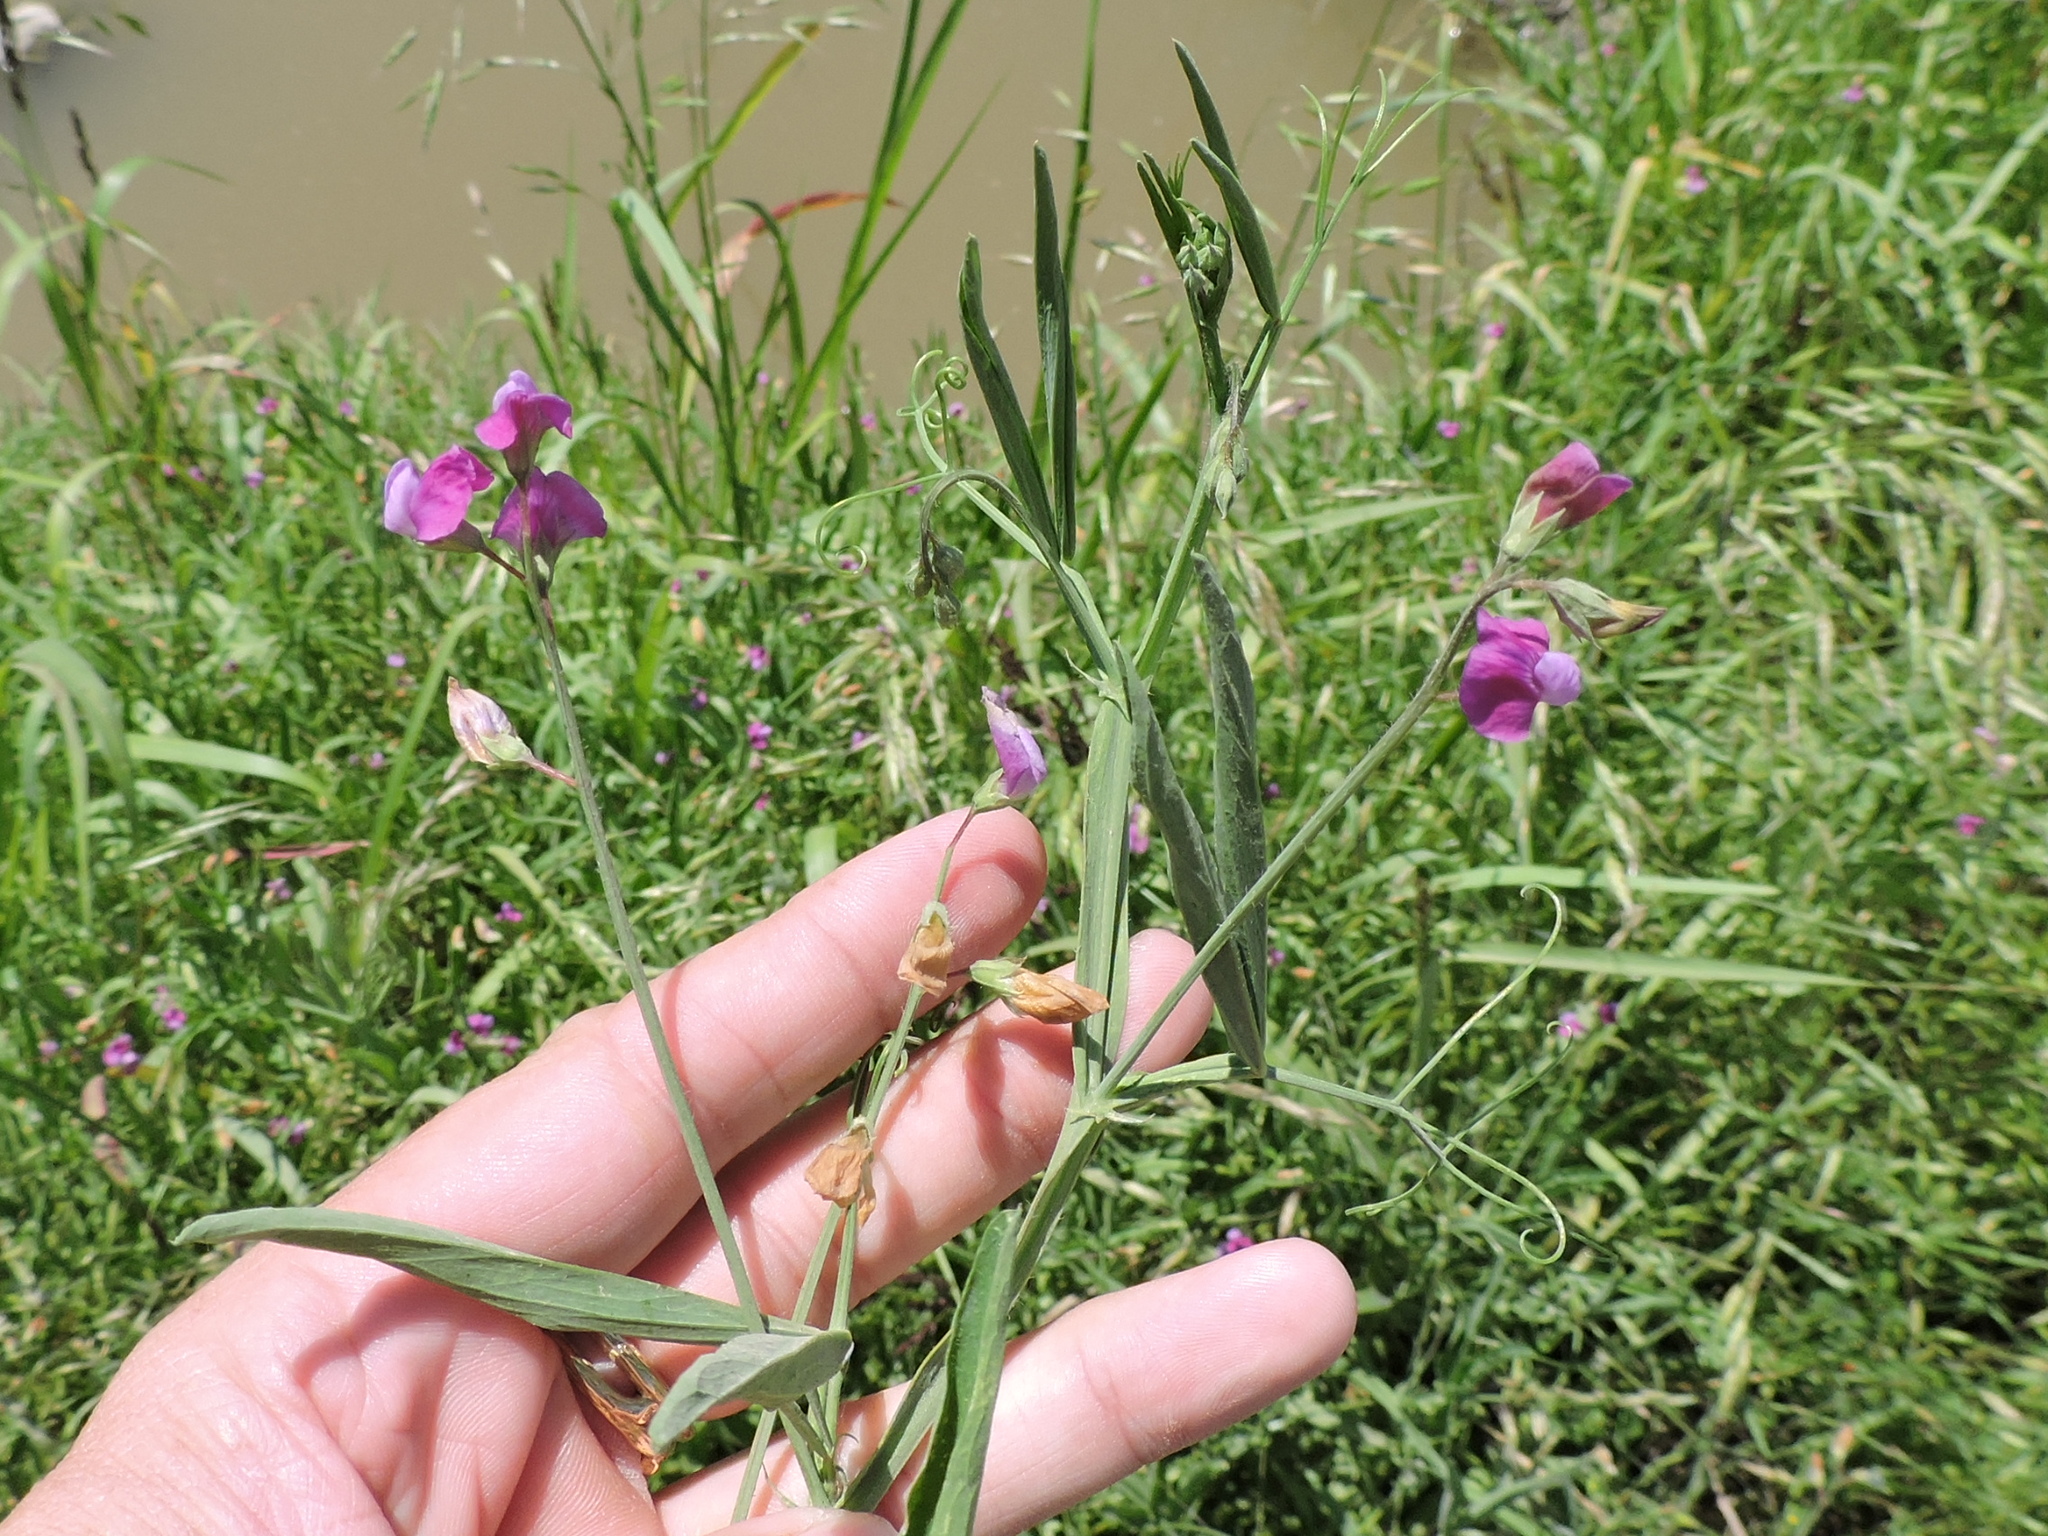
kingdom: Plantae
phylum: Tracheophyta
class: Magnoliopsida
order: Fabales
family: Fabaceae
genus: Lathyrus
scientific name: Lathyrus hirsutus
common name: Hairy vetchling
